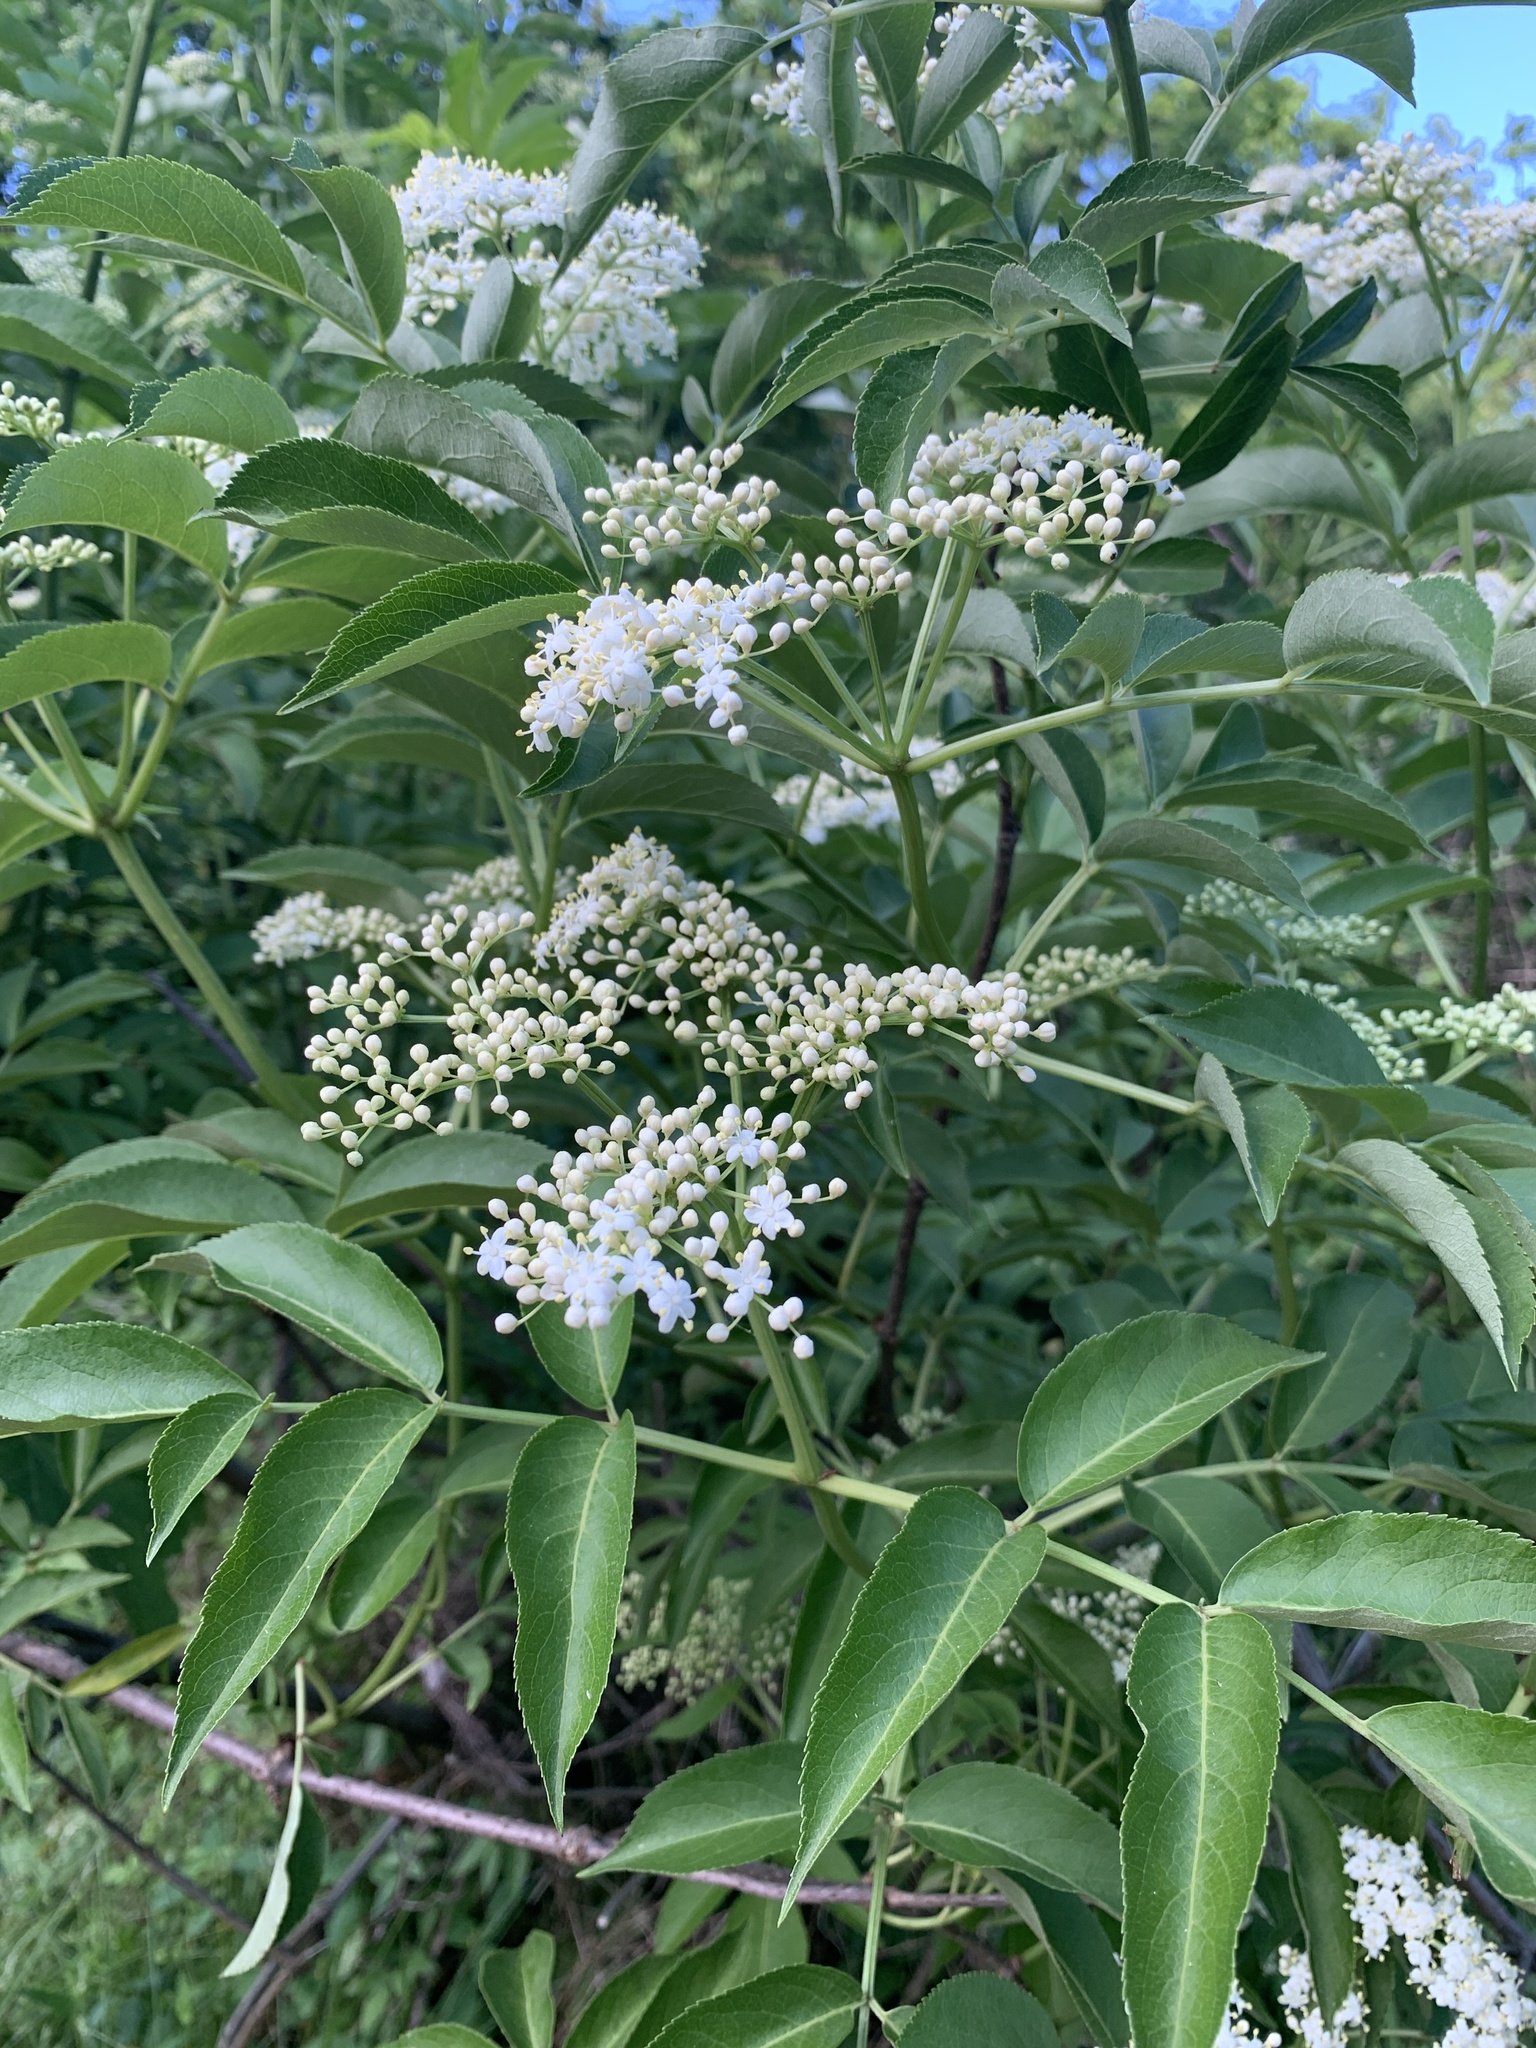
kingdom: Plantae
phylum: Tracheophyta
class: Magnoliopsida
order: Dipsacales
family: Viburnaceae
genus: Sambucus
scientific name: Sambucus canadensis
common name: American elder
